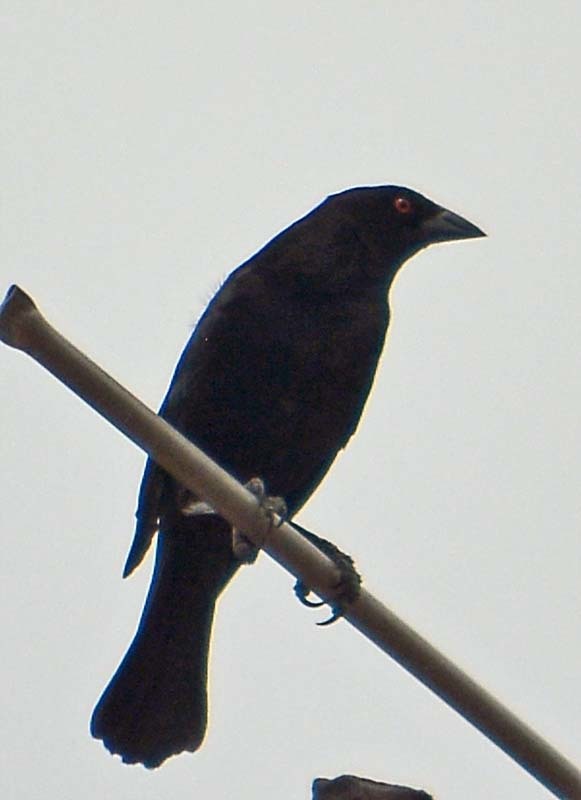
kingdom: Animalia
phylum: Chordata
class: Aves
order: Passeriformes
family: Icteridae
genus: Molothrus
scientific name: Molothrus aeneus
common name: Bronzed cowbird
